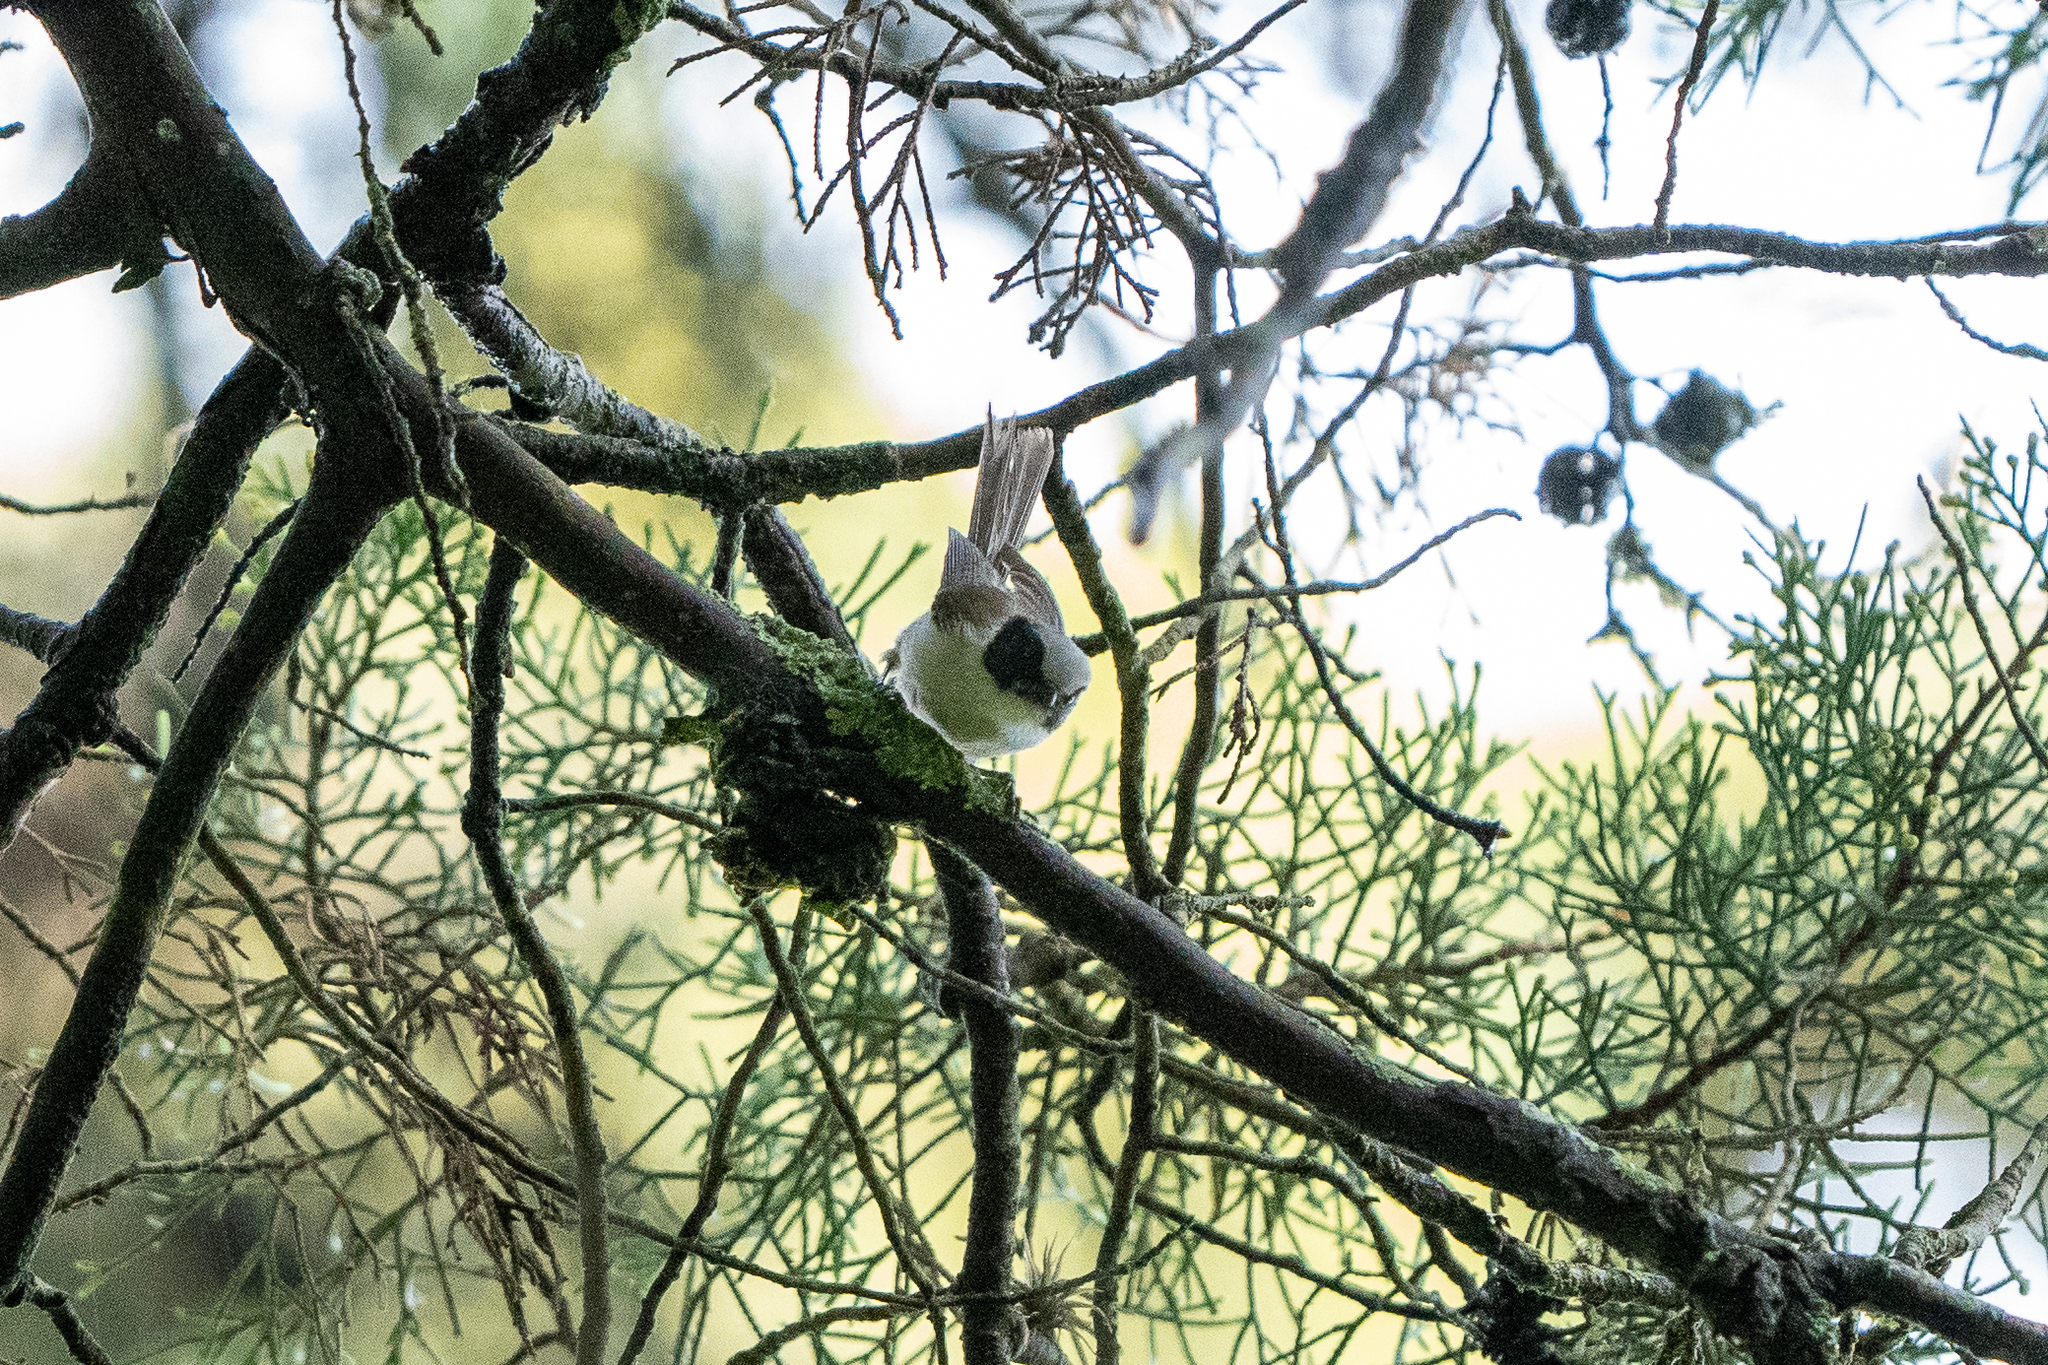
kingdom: Animalia
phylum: Chordata
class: Aves
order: Passeriformes
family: Aegithalidae
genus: Psaltriparus
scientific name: Psaltriparus minimus
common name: American bushtit
